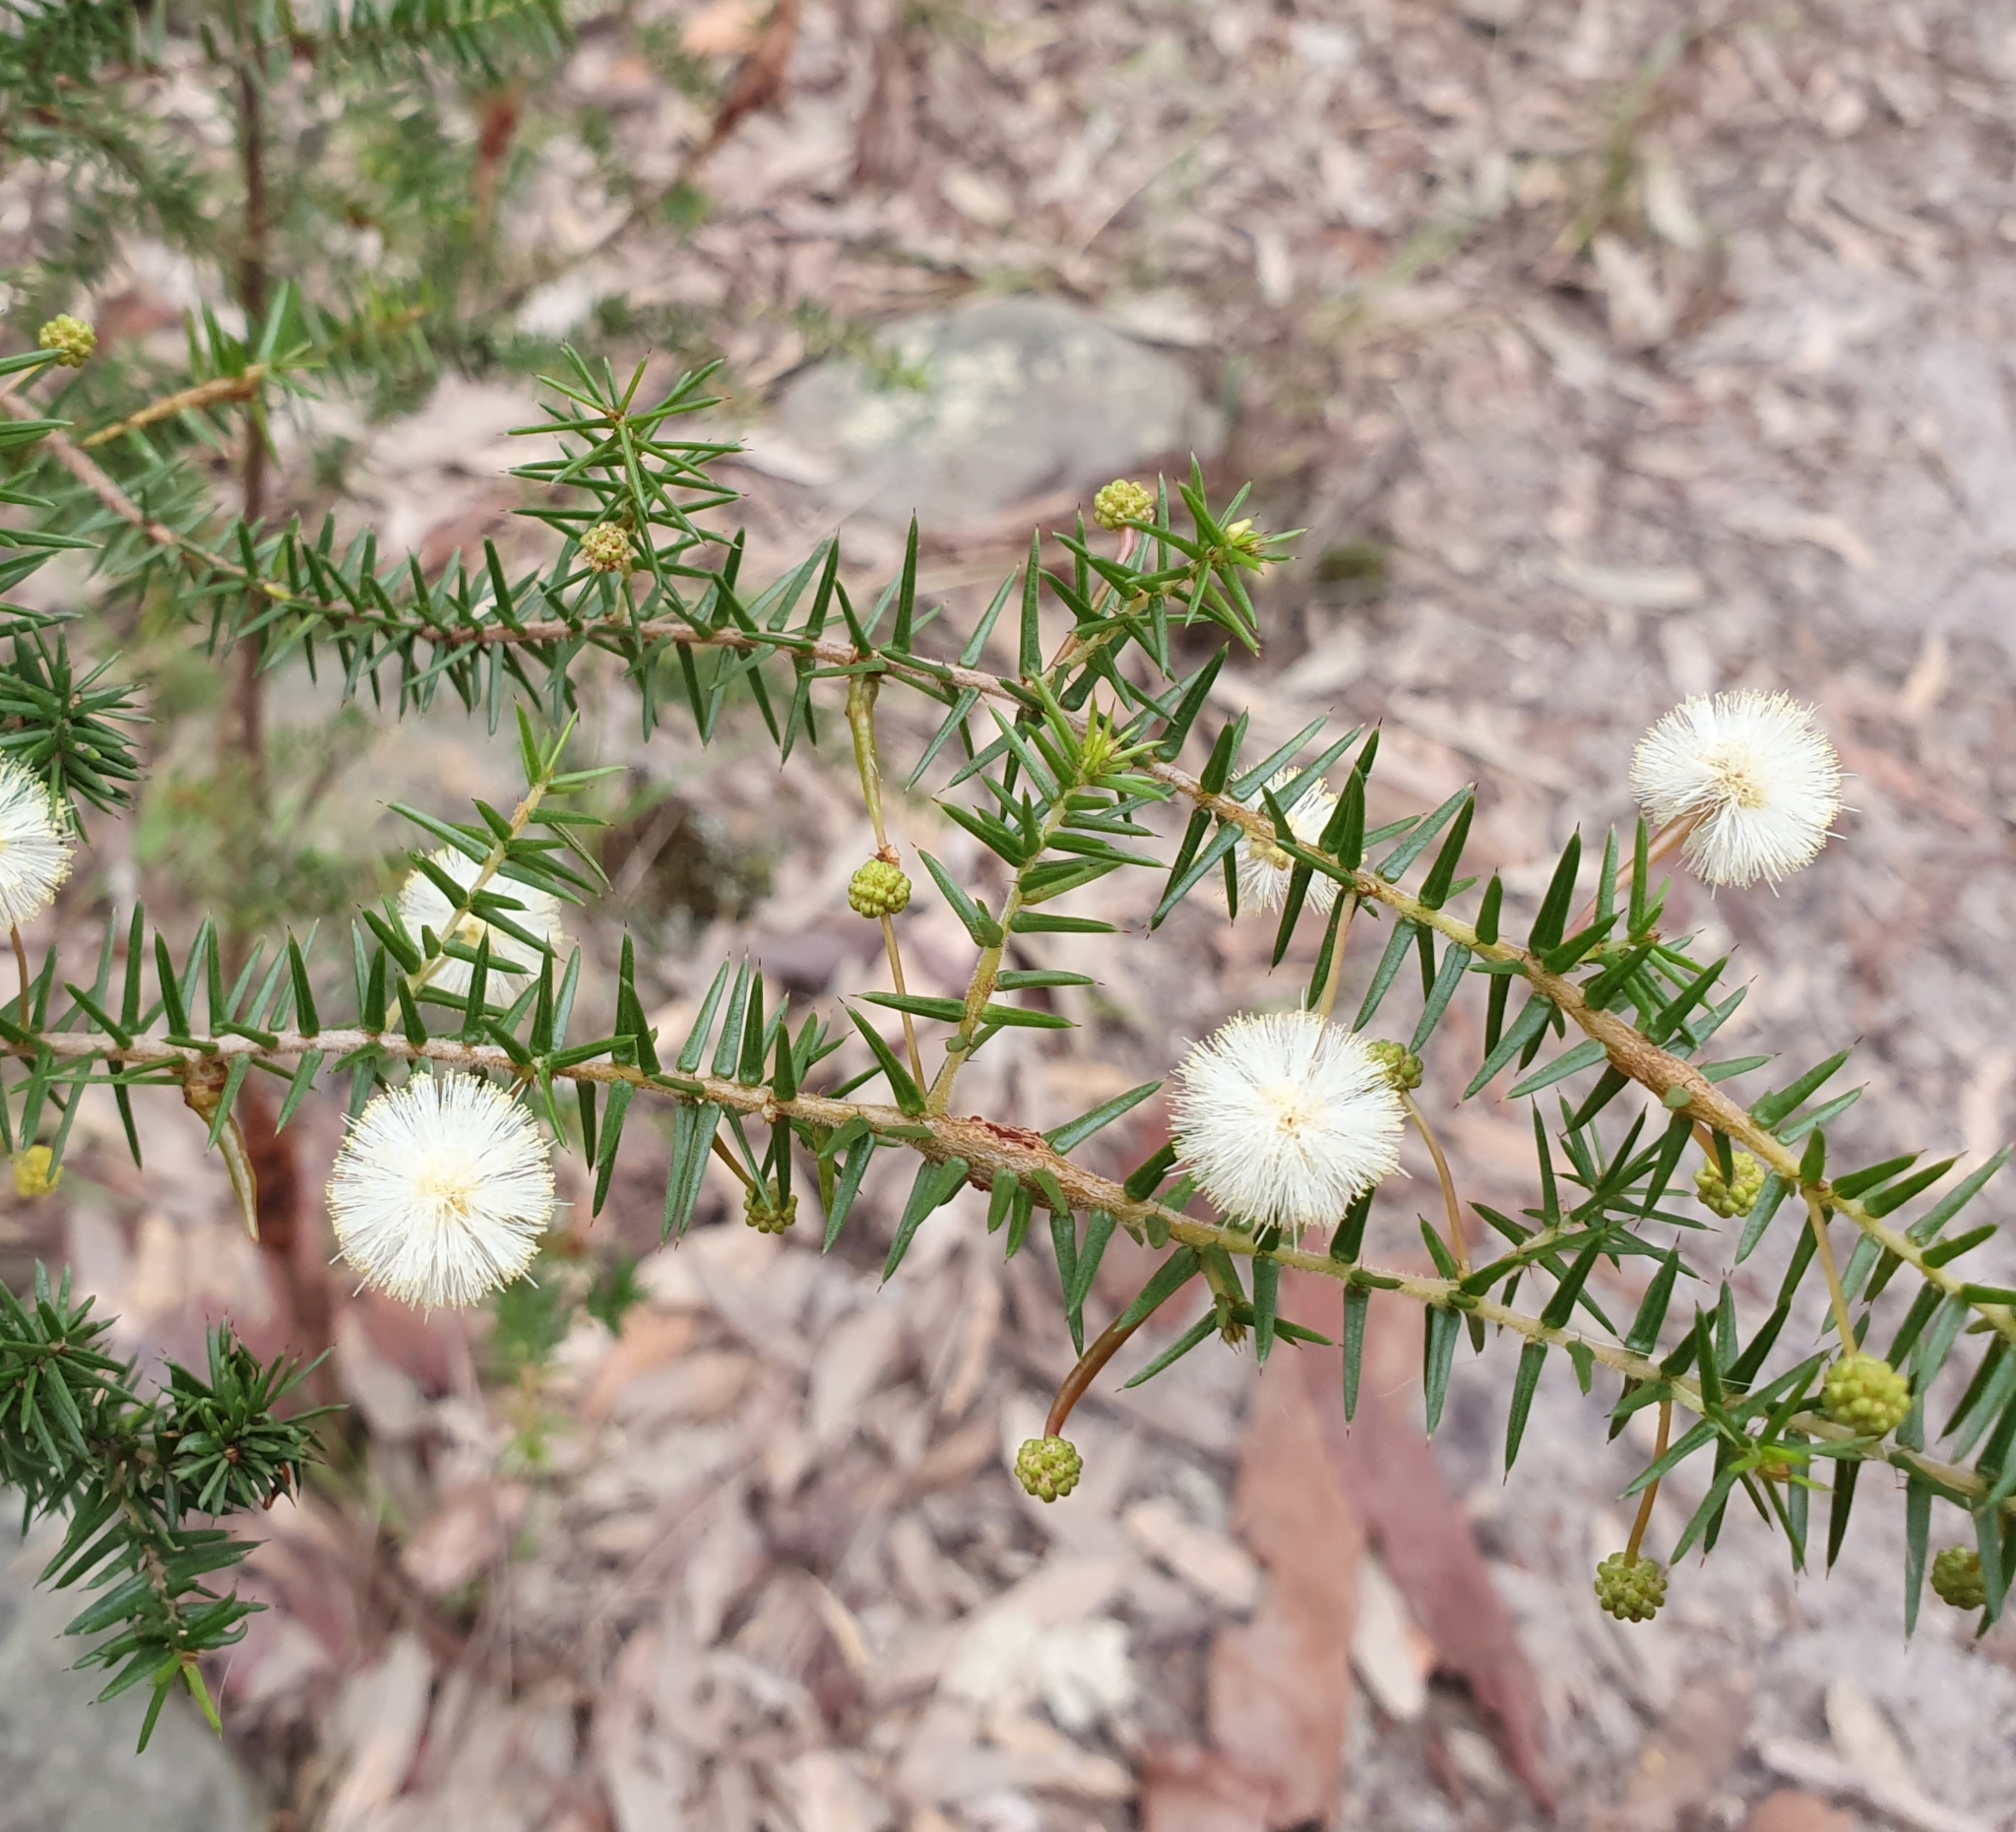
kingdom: Plantae
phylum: Tracheophyta
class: Magnoliopsida
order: Fabales
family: Fabaceae
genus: Acacia
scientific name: Acacia ulicifolia
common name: Juniper wattle
